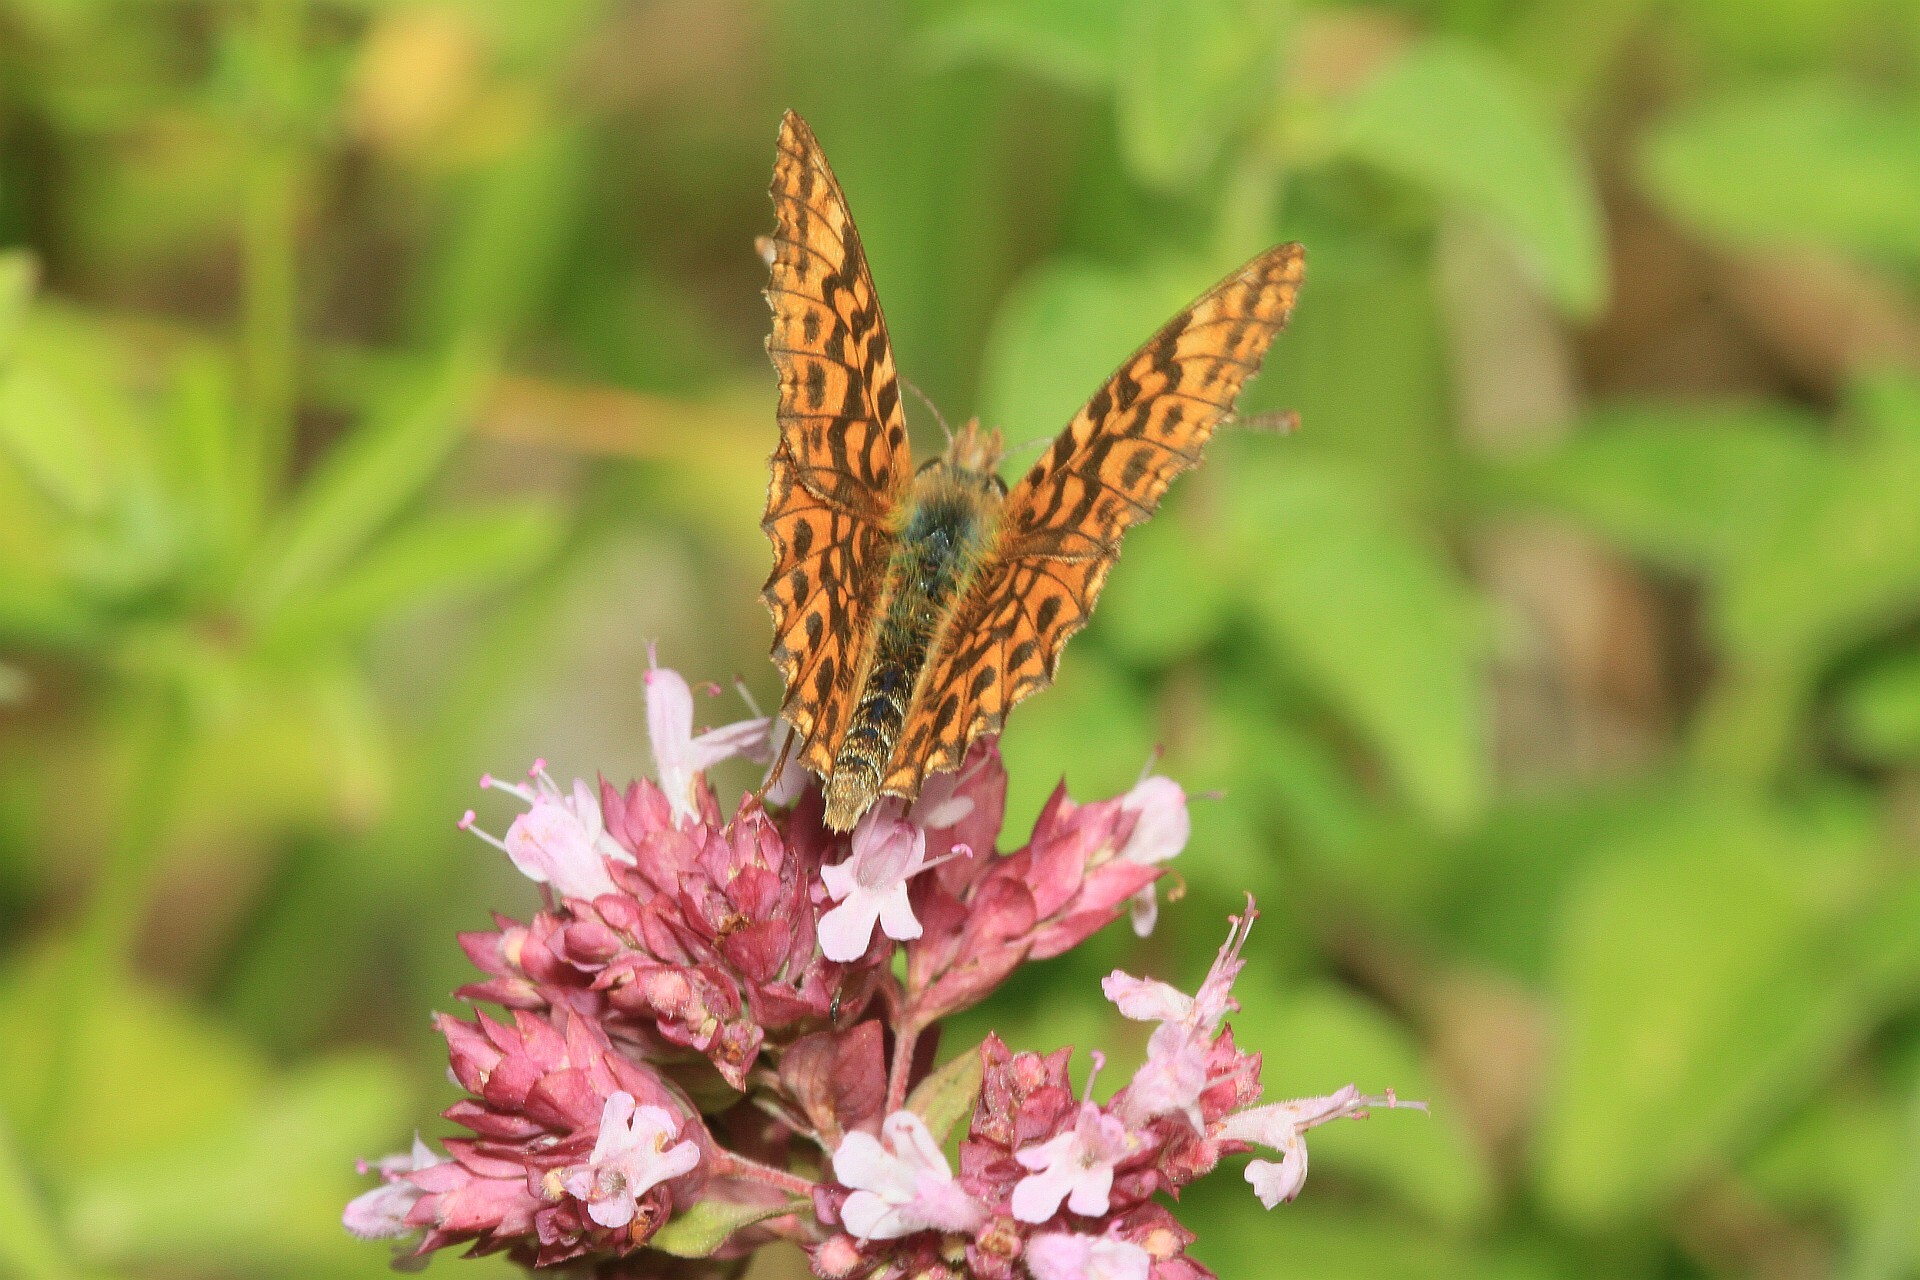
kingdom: Animalia
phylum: Arthropoda
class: Insecta
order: Lepidoptera
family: Nymphalidae
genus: Boloria
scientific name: Boloria dia
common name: Weaver's fritillary
